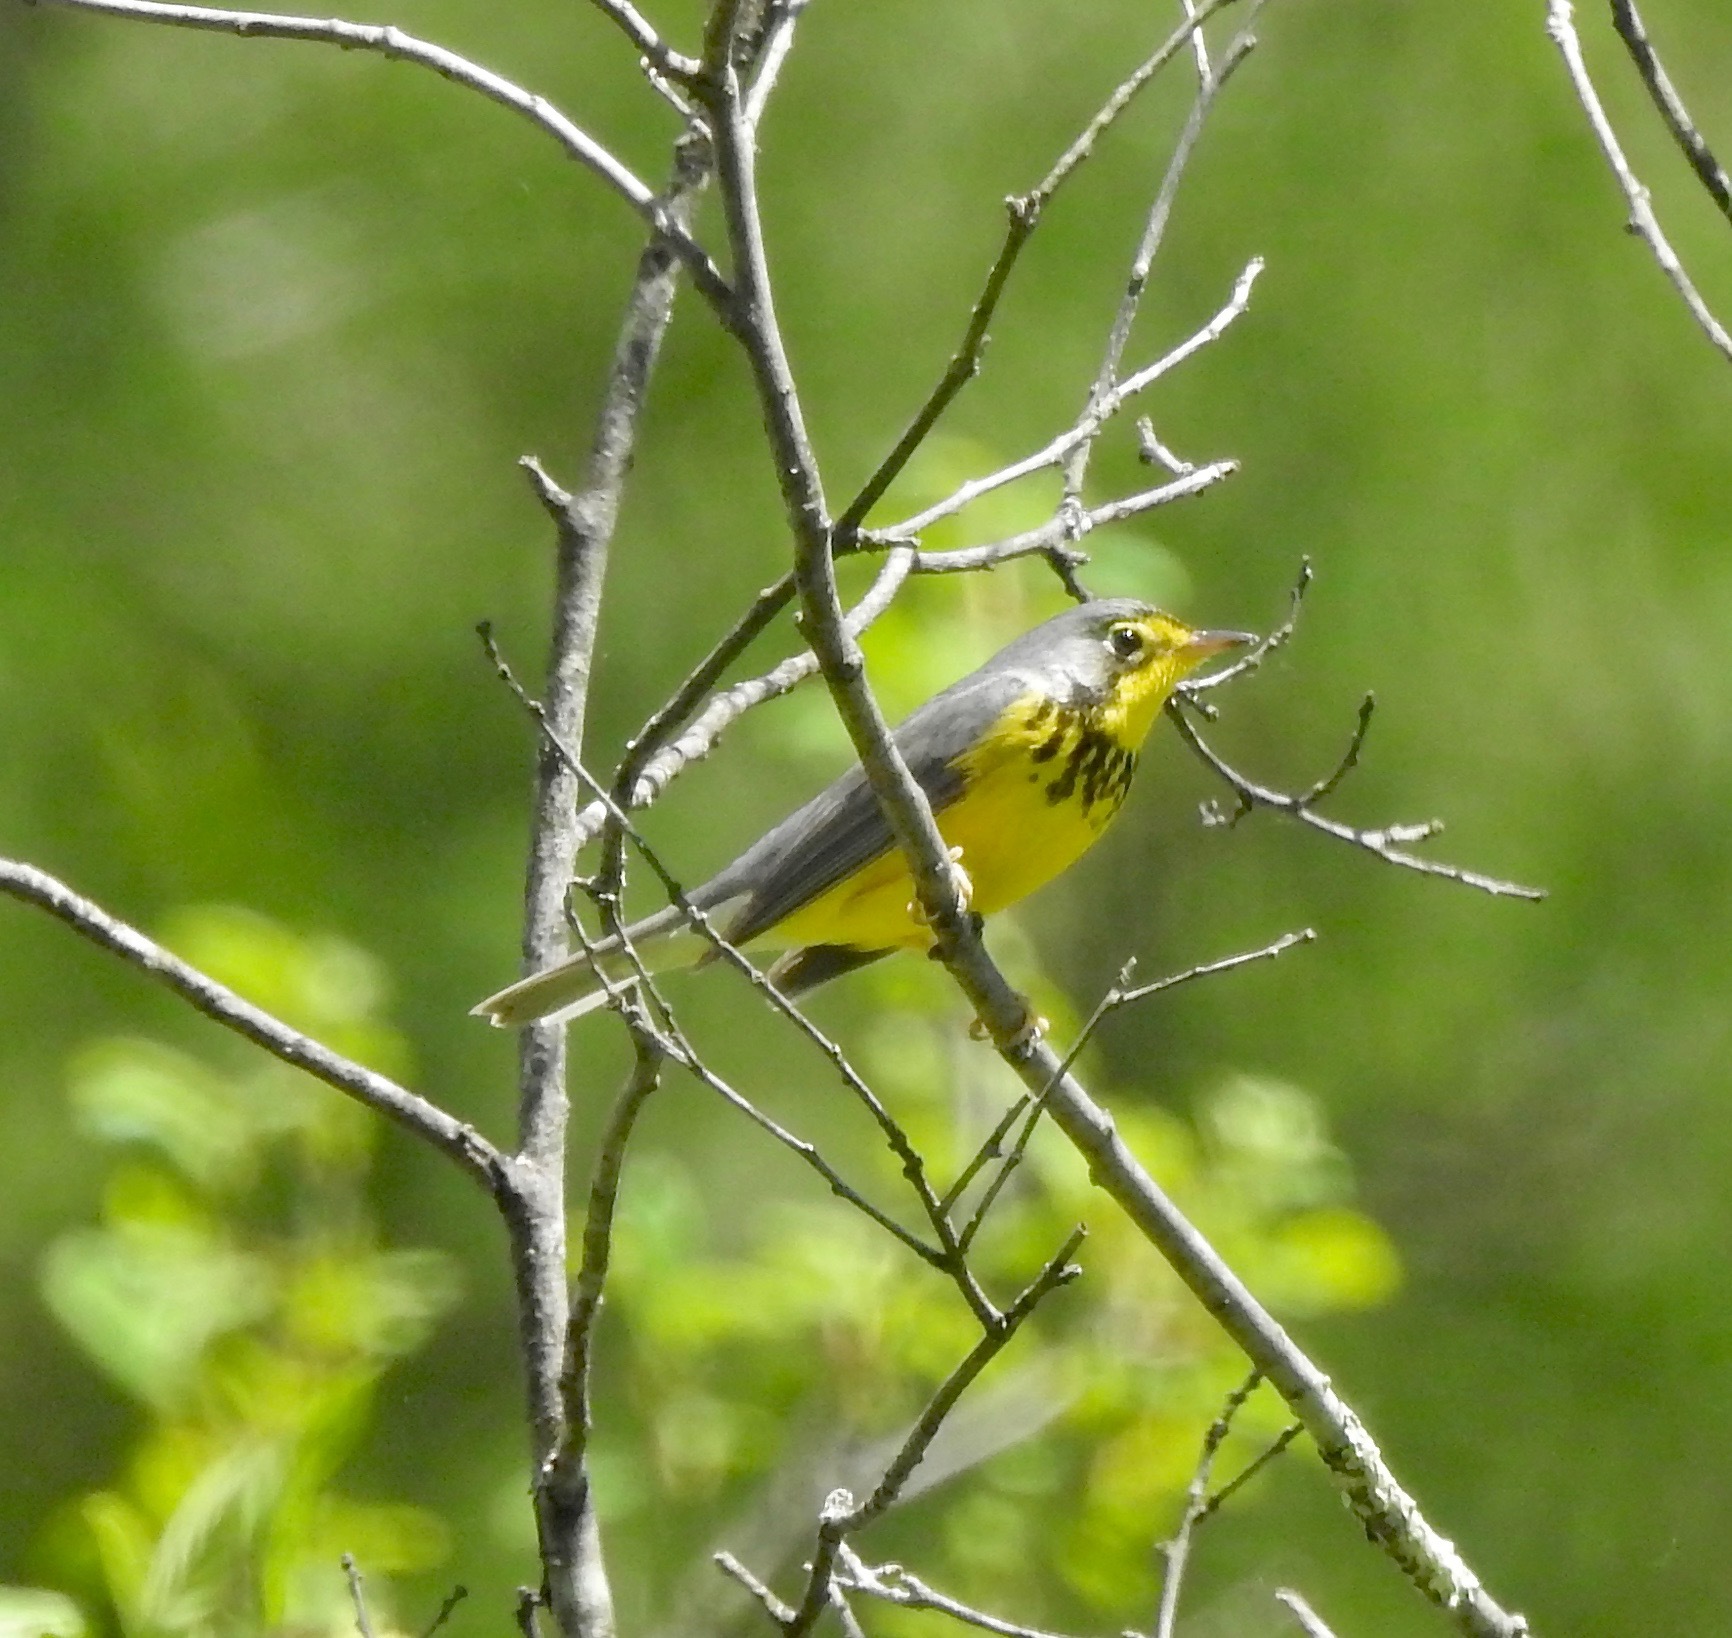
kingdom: Animalia
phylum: Chordata
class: Aves
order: Passeriformes
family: Parulidae
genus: Cardellina
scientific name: Cardellina canadensis
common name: Canada warbler
